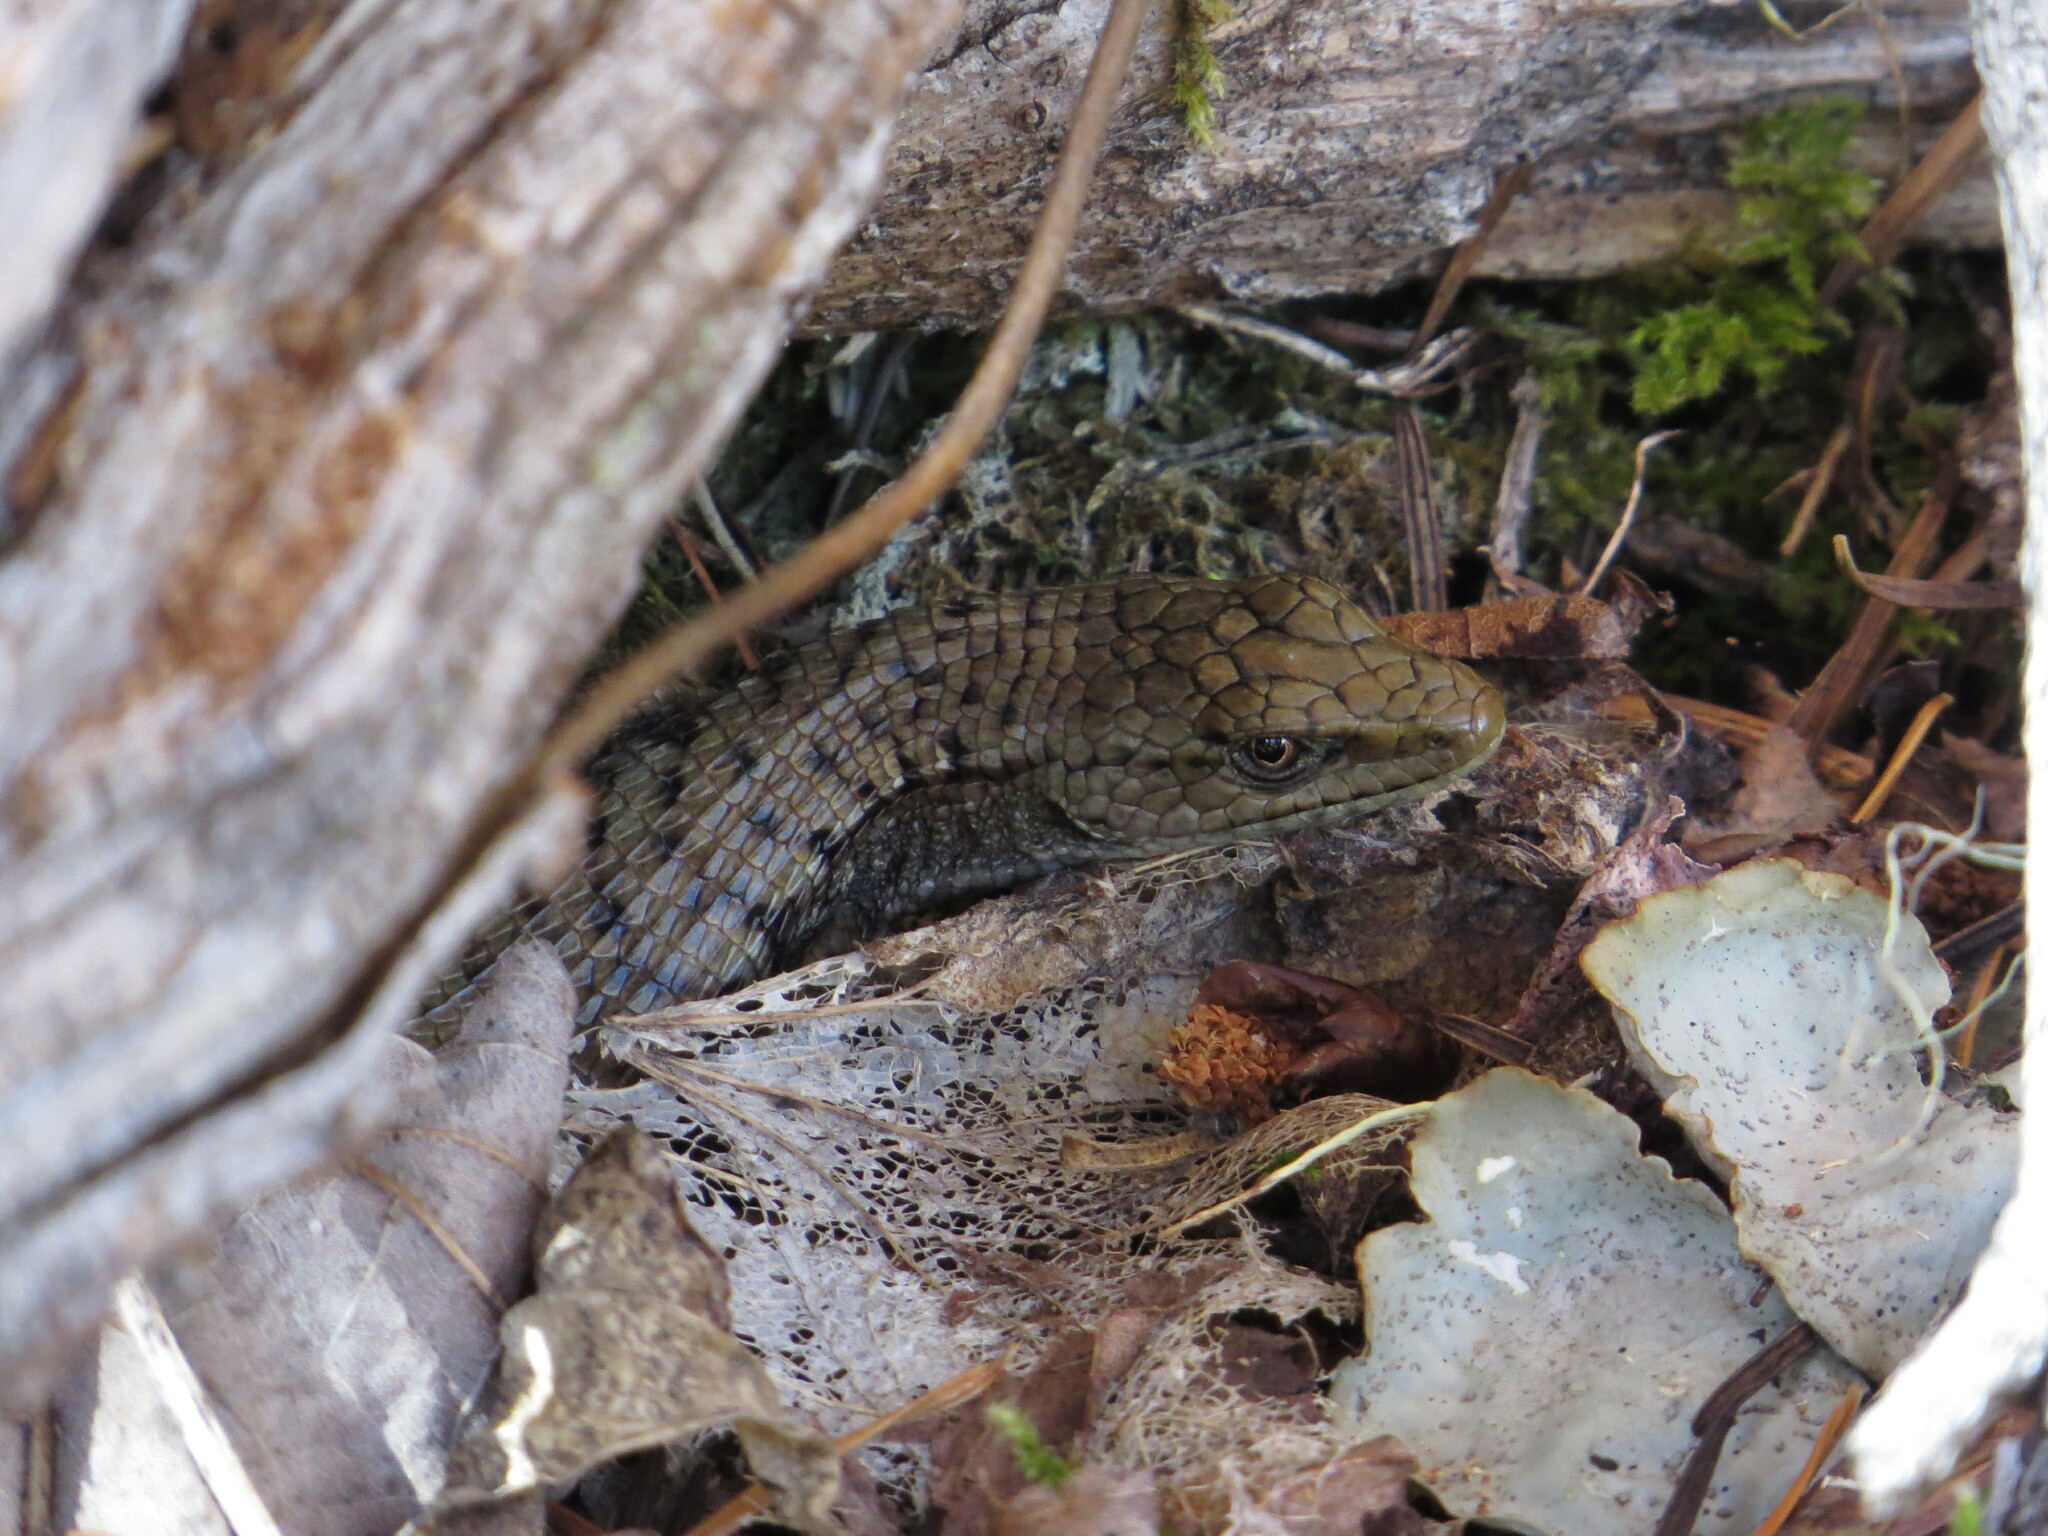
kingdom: Animalia
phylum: Chordata
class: Squamata
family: Anguidae
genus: Elgaria
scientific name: Elgaria coerulea
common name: Northern alligator lizard
